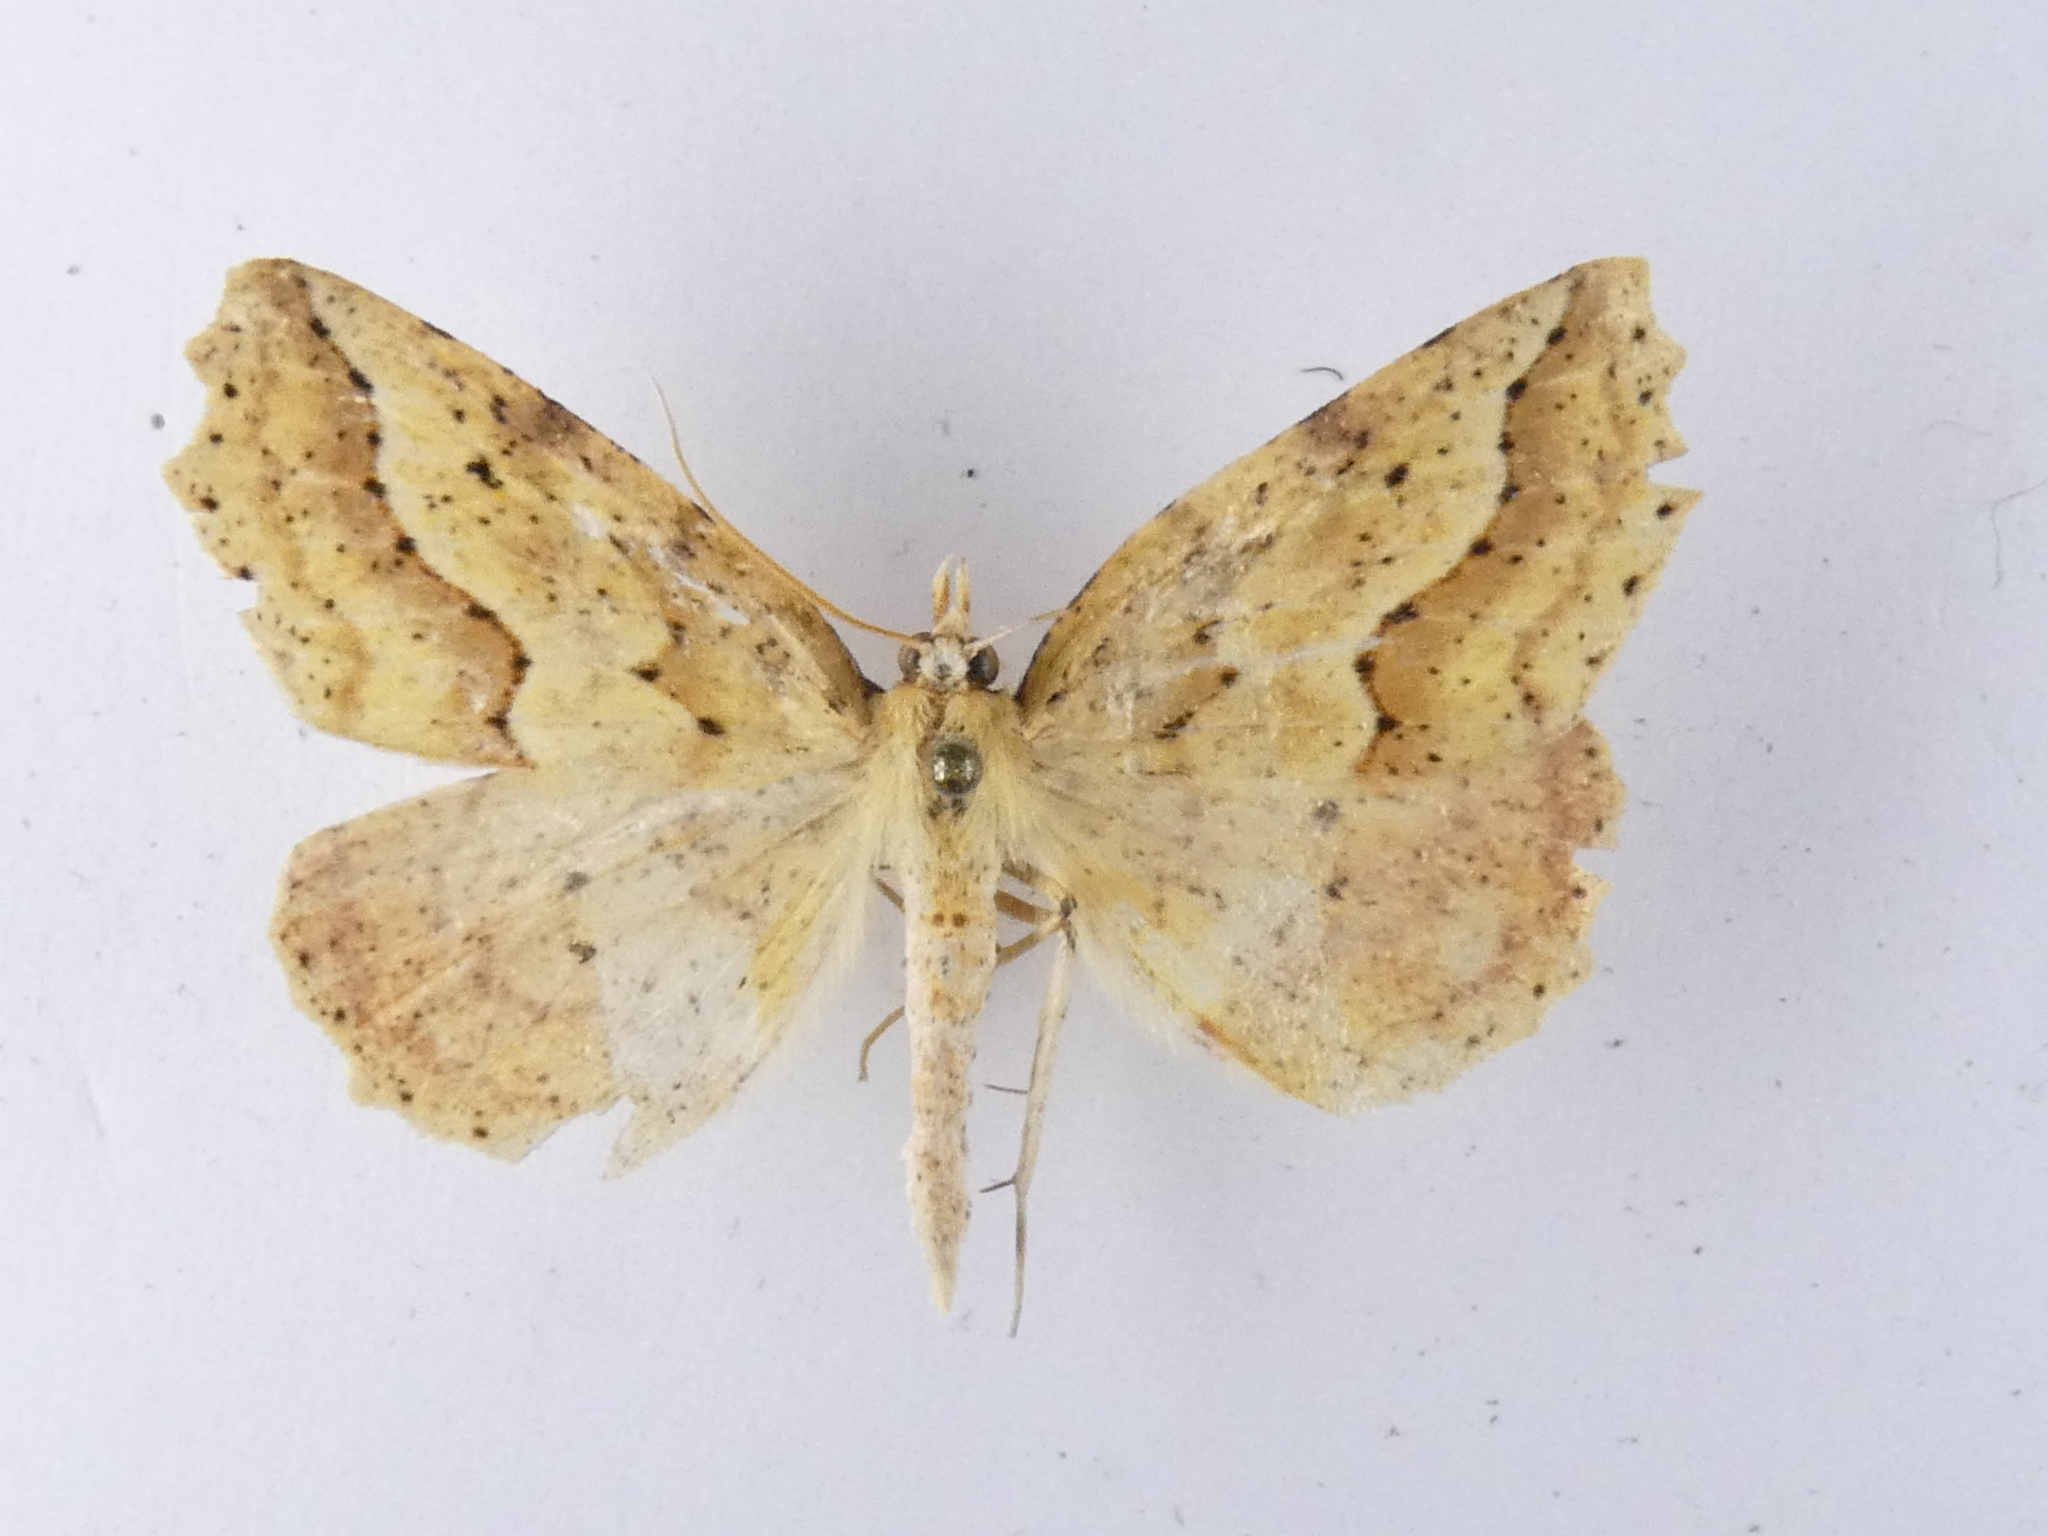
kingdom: Animalia
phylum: Arthropoda
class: Insecta
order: Lepidoptera
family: Geometridae
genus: Ischalis
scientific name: Ischalis variabilis
